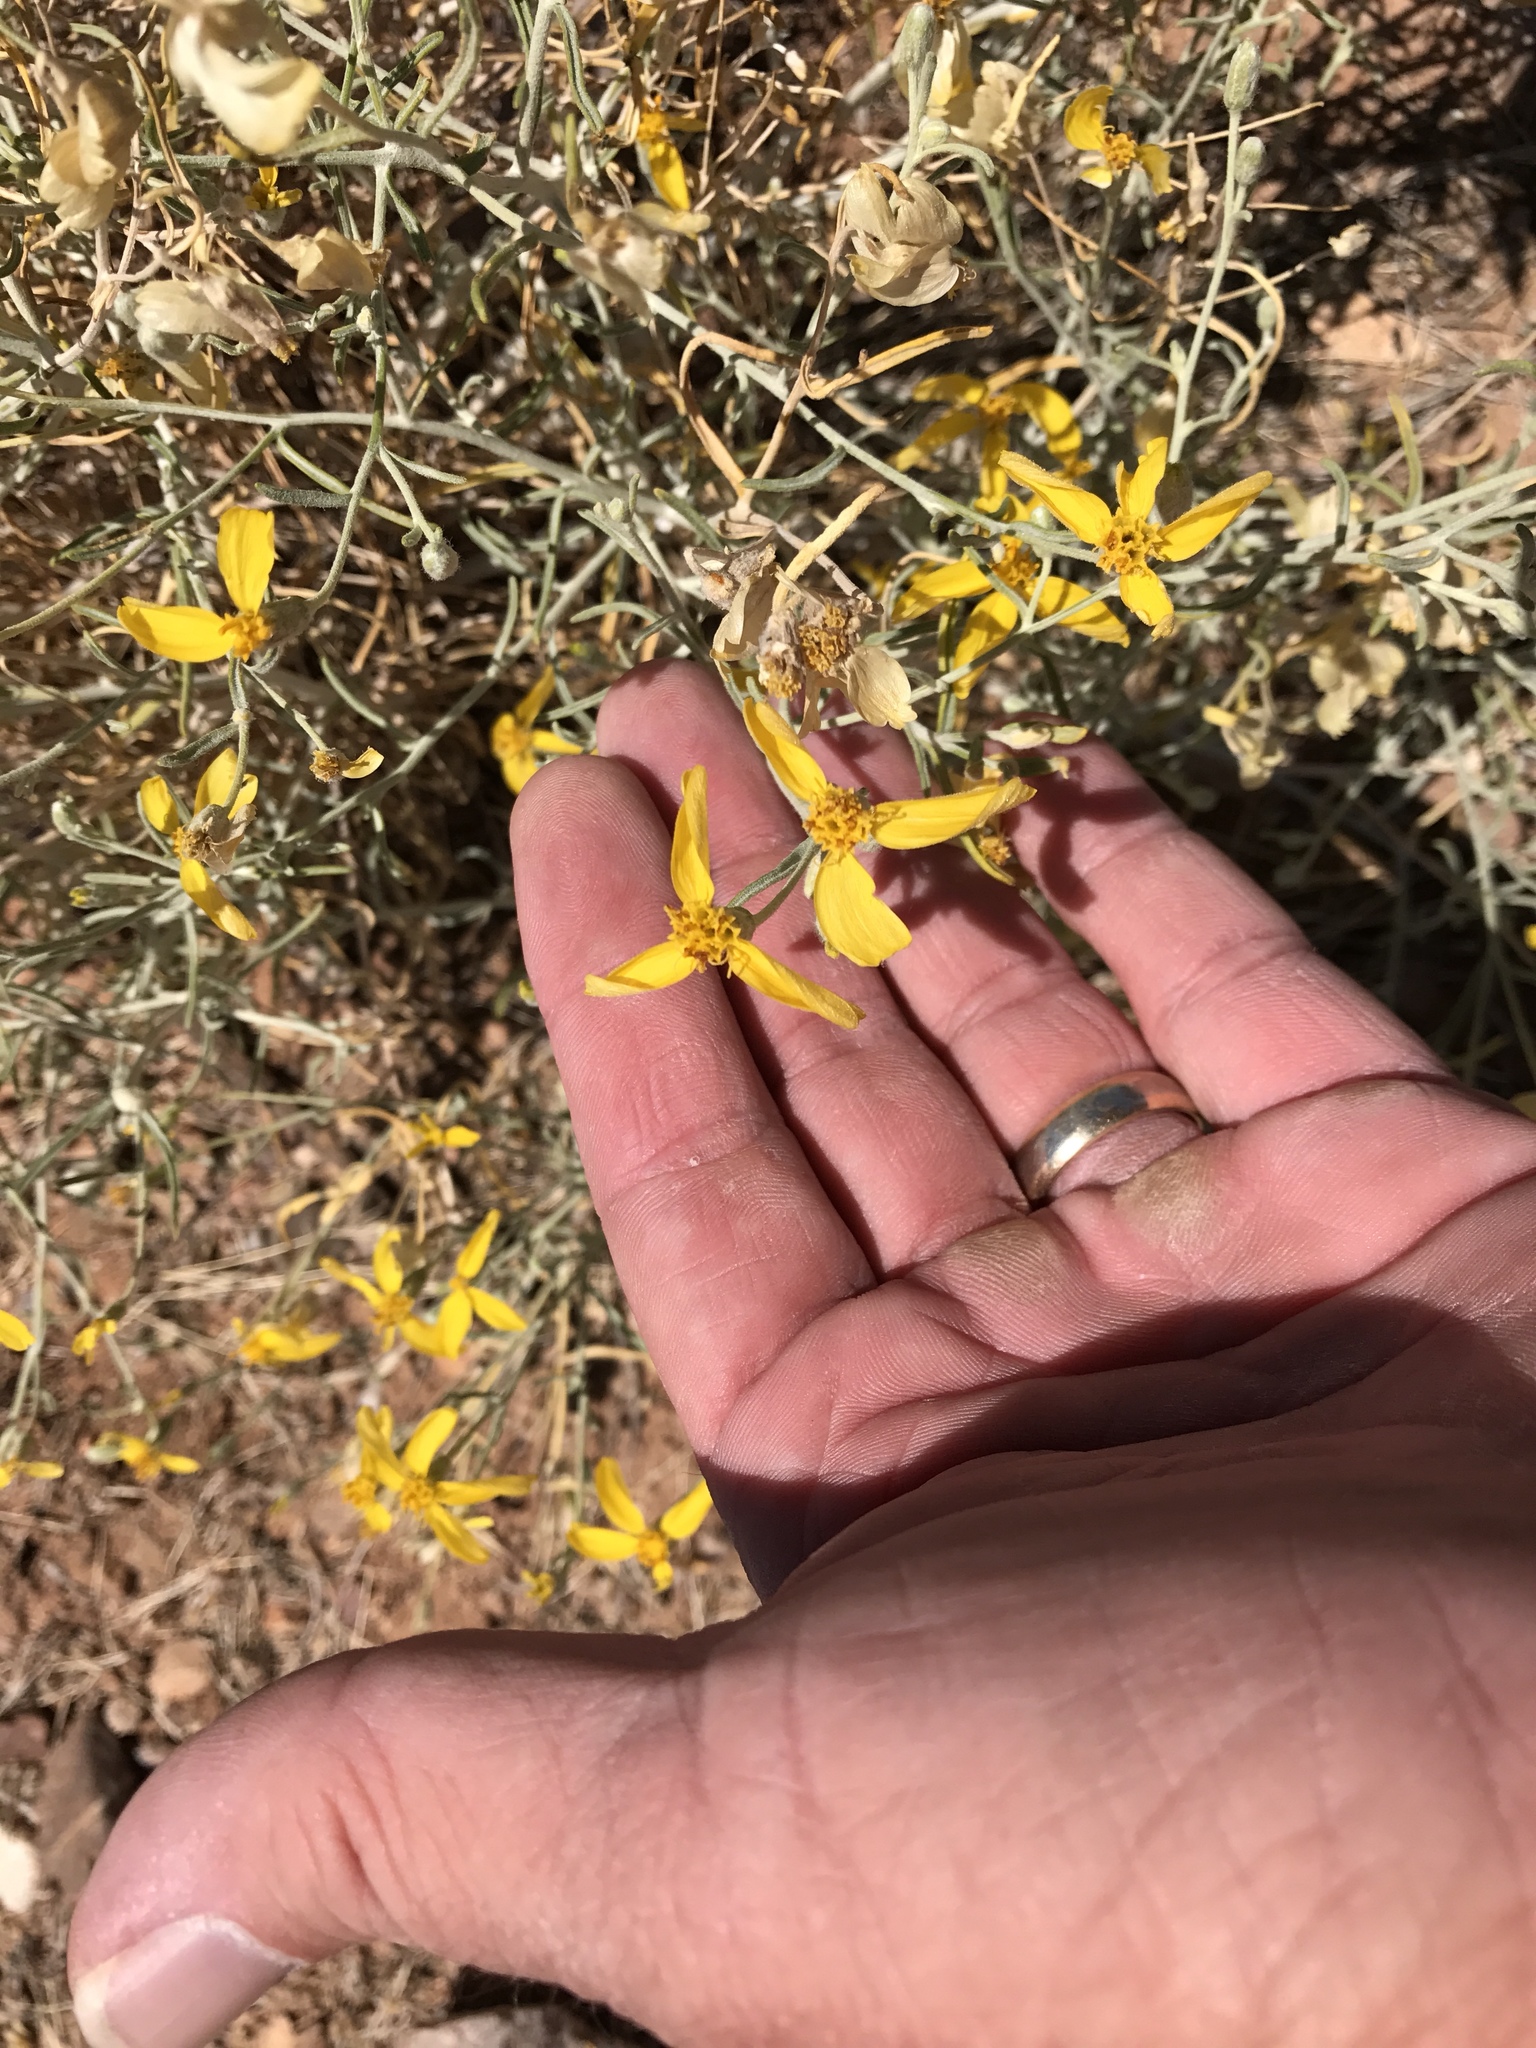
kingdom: Plantae
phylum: Tracheophyta
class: Magnoliopsida
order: Asterales
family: Asteraceae
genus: Psilostrophe
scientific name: Psilostrophe cooperi
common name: White-stem paper-flower
